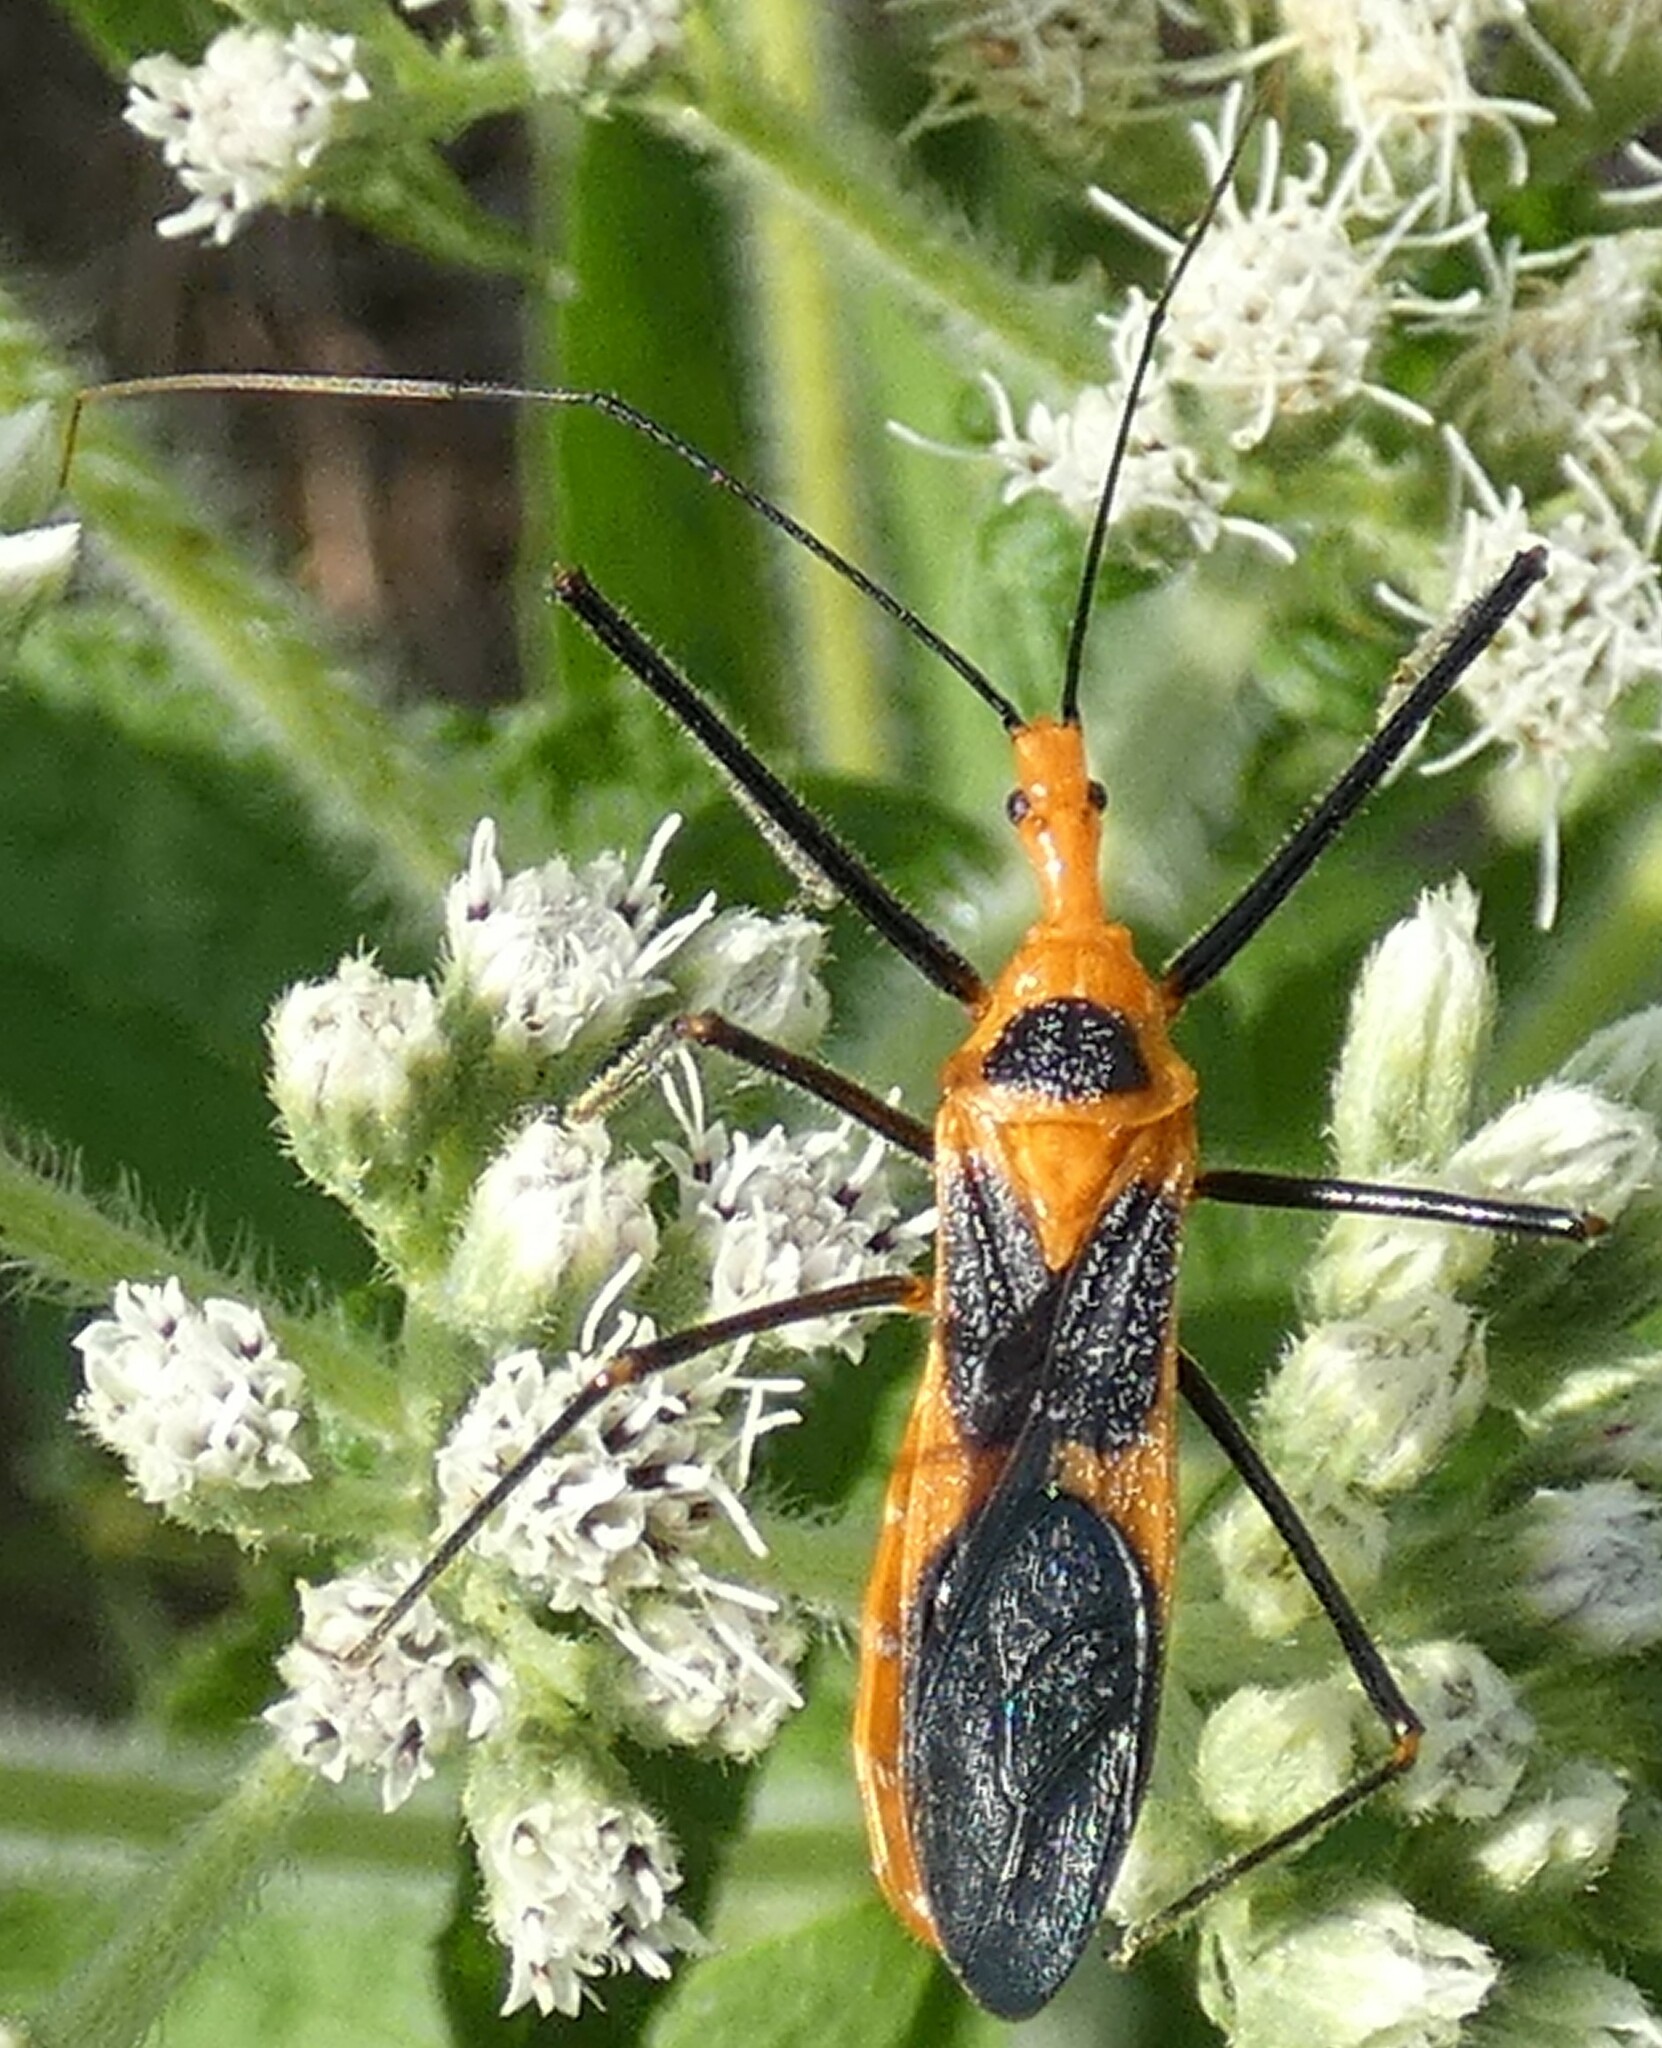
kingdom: Animalia
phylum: Arthropoda
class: Insecta
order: Hemiptera
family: Reduviidae
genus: Zelus
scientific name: Zelus longipes
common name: Milkweed assassin bug
